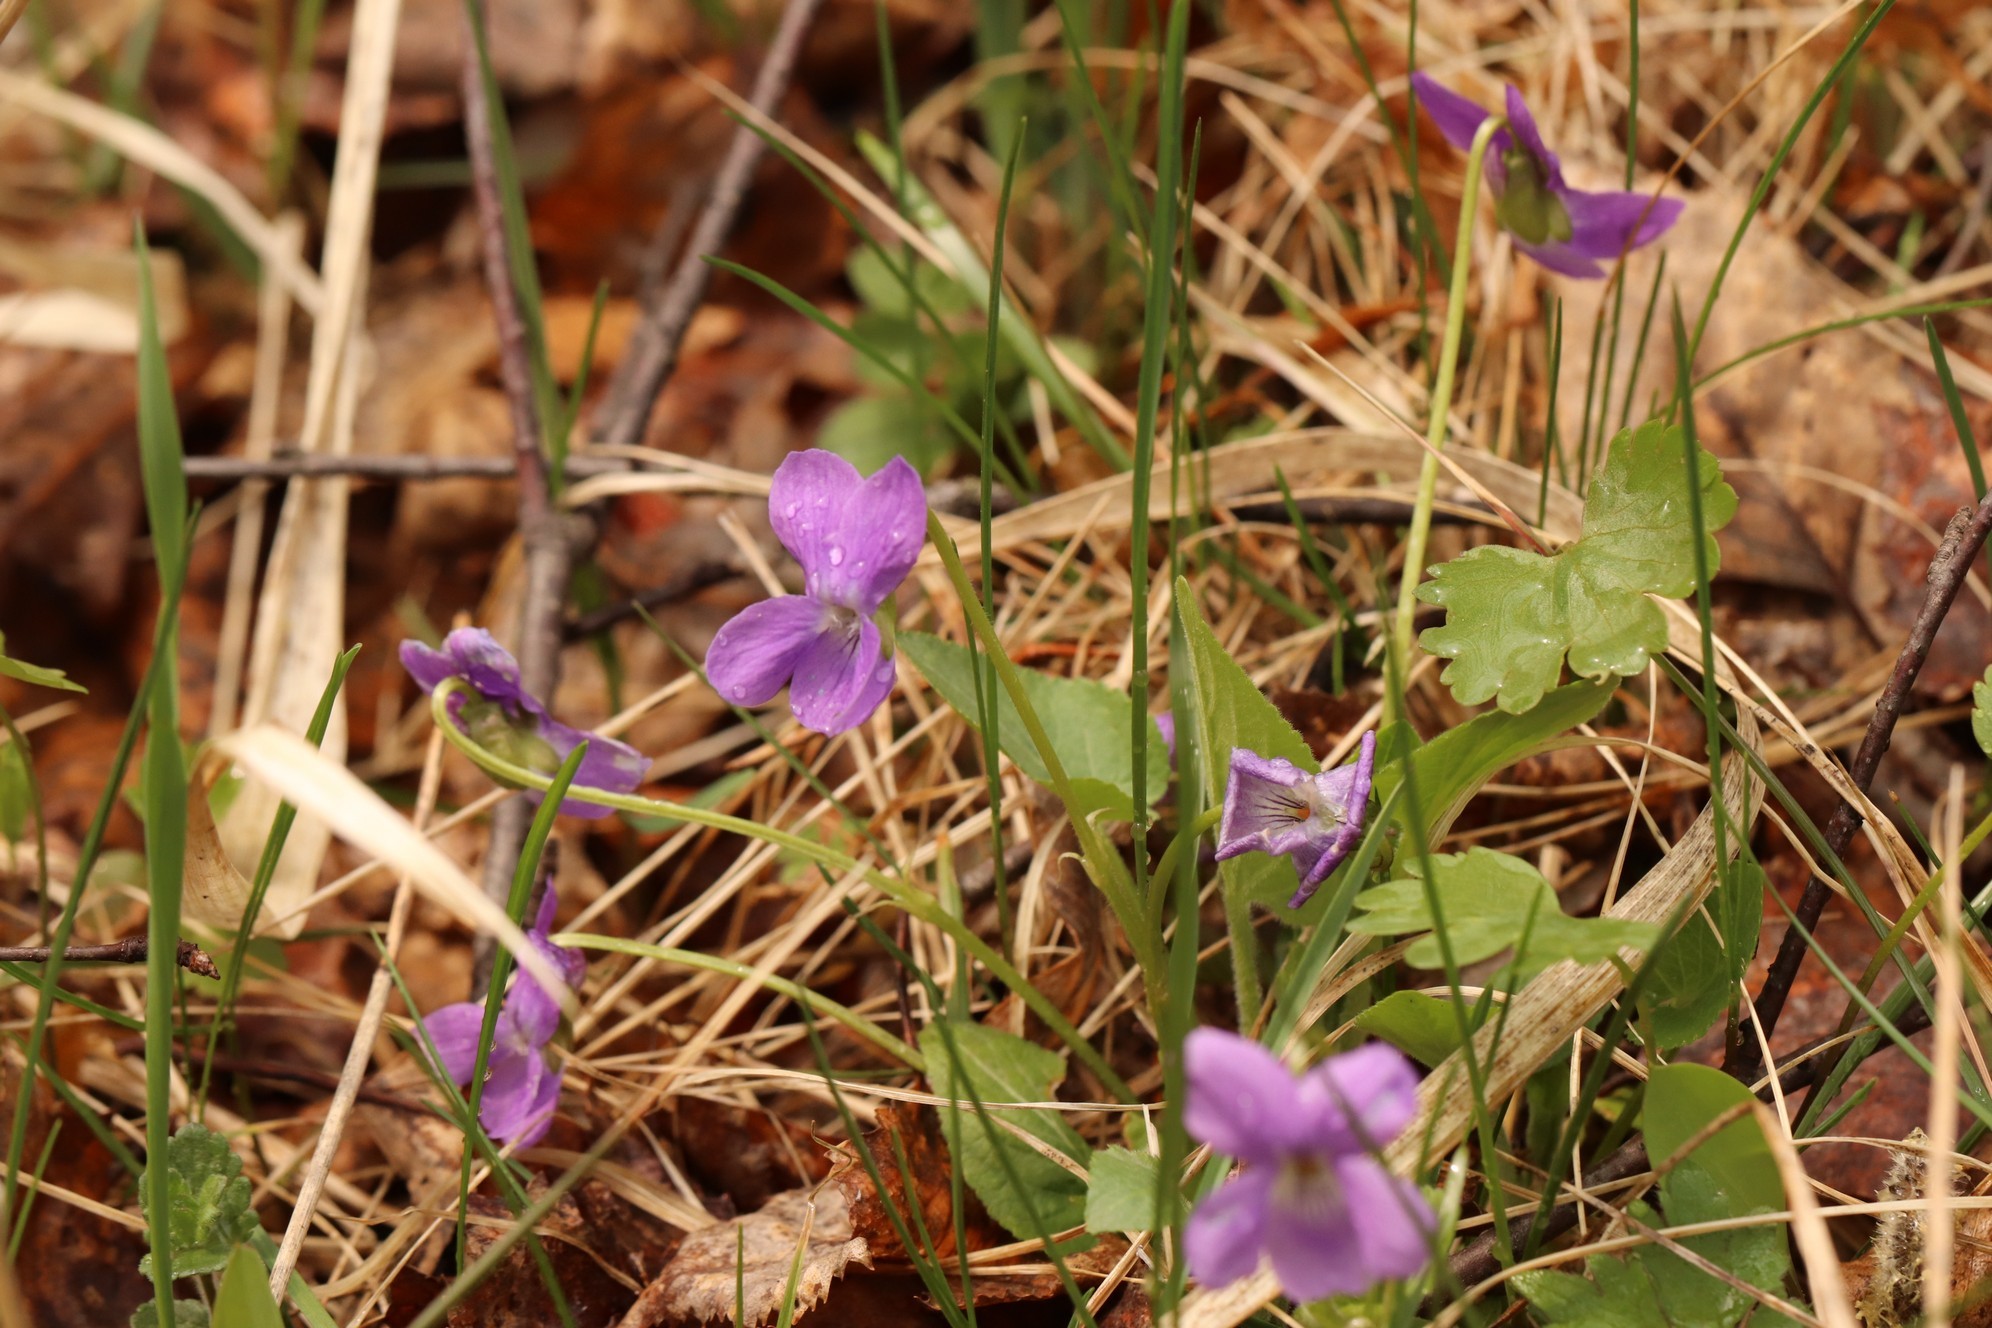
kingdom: Plantae
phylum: Tracheophyta
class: Magnoliopsida
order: Malpighiales
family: Violaceae
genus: Viola
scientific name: Viola hirta
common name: Hairy violet
